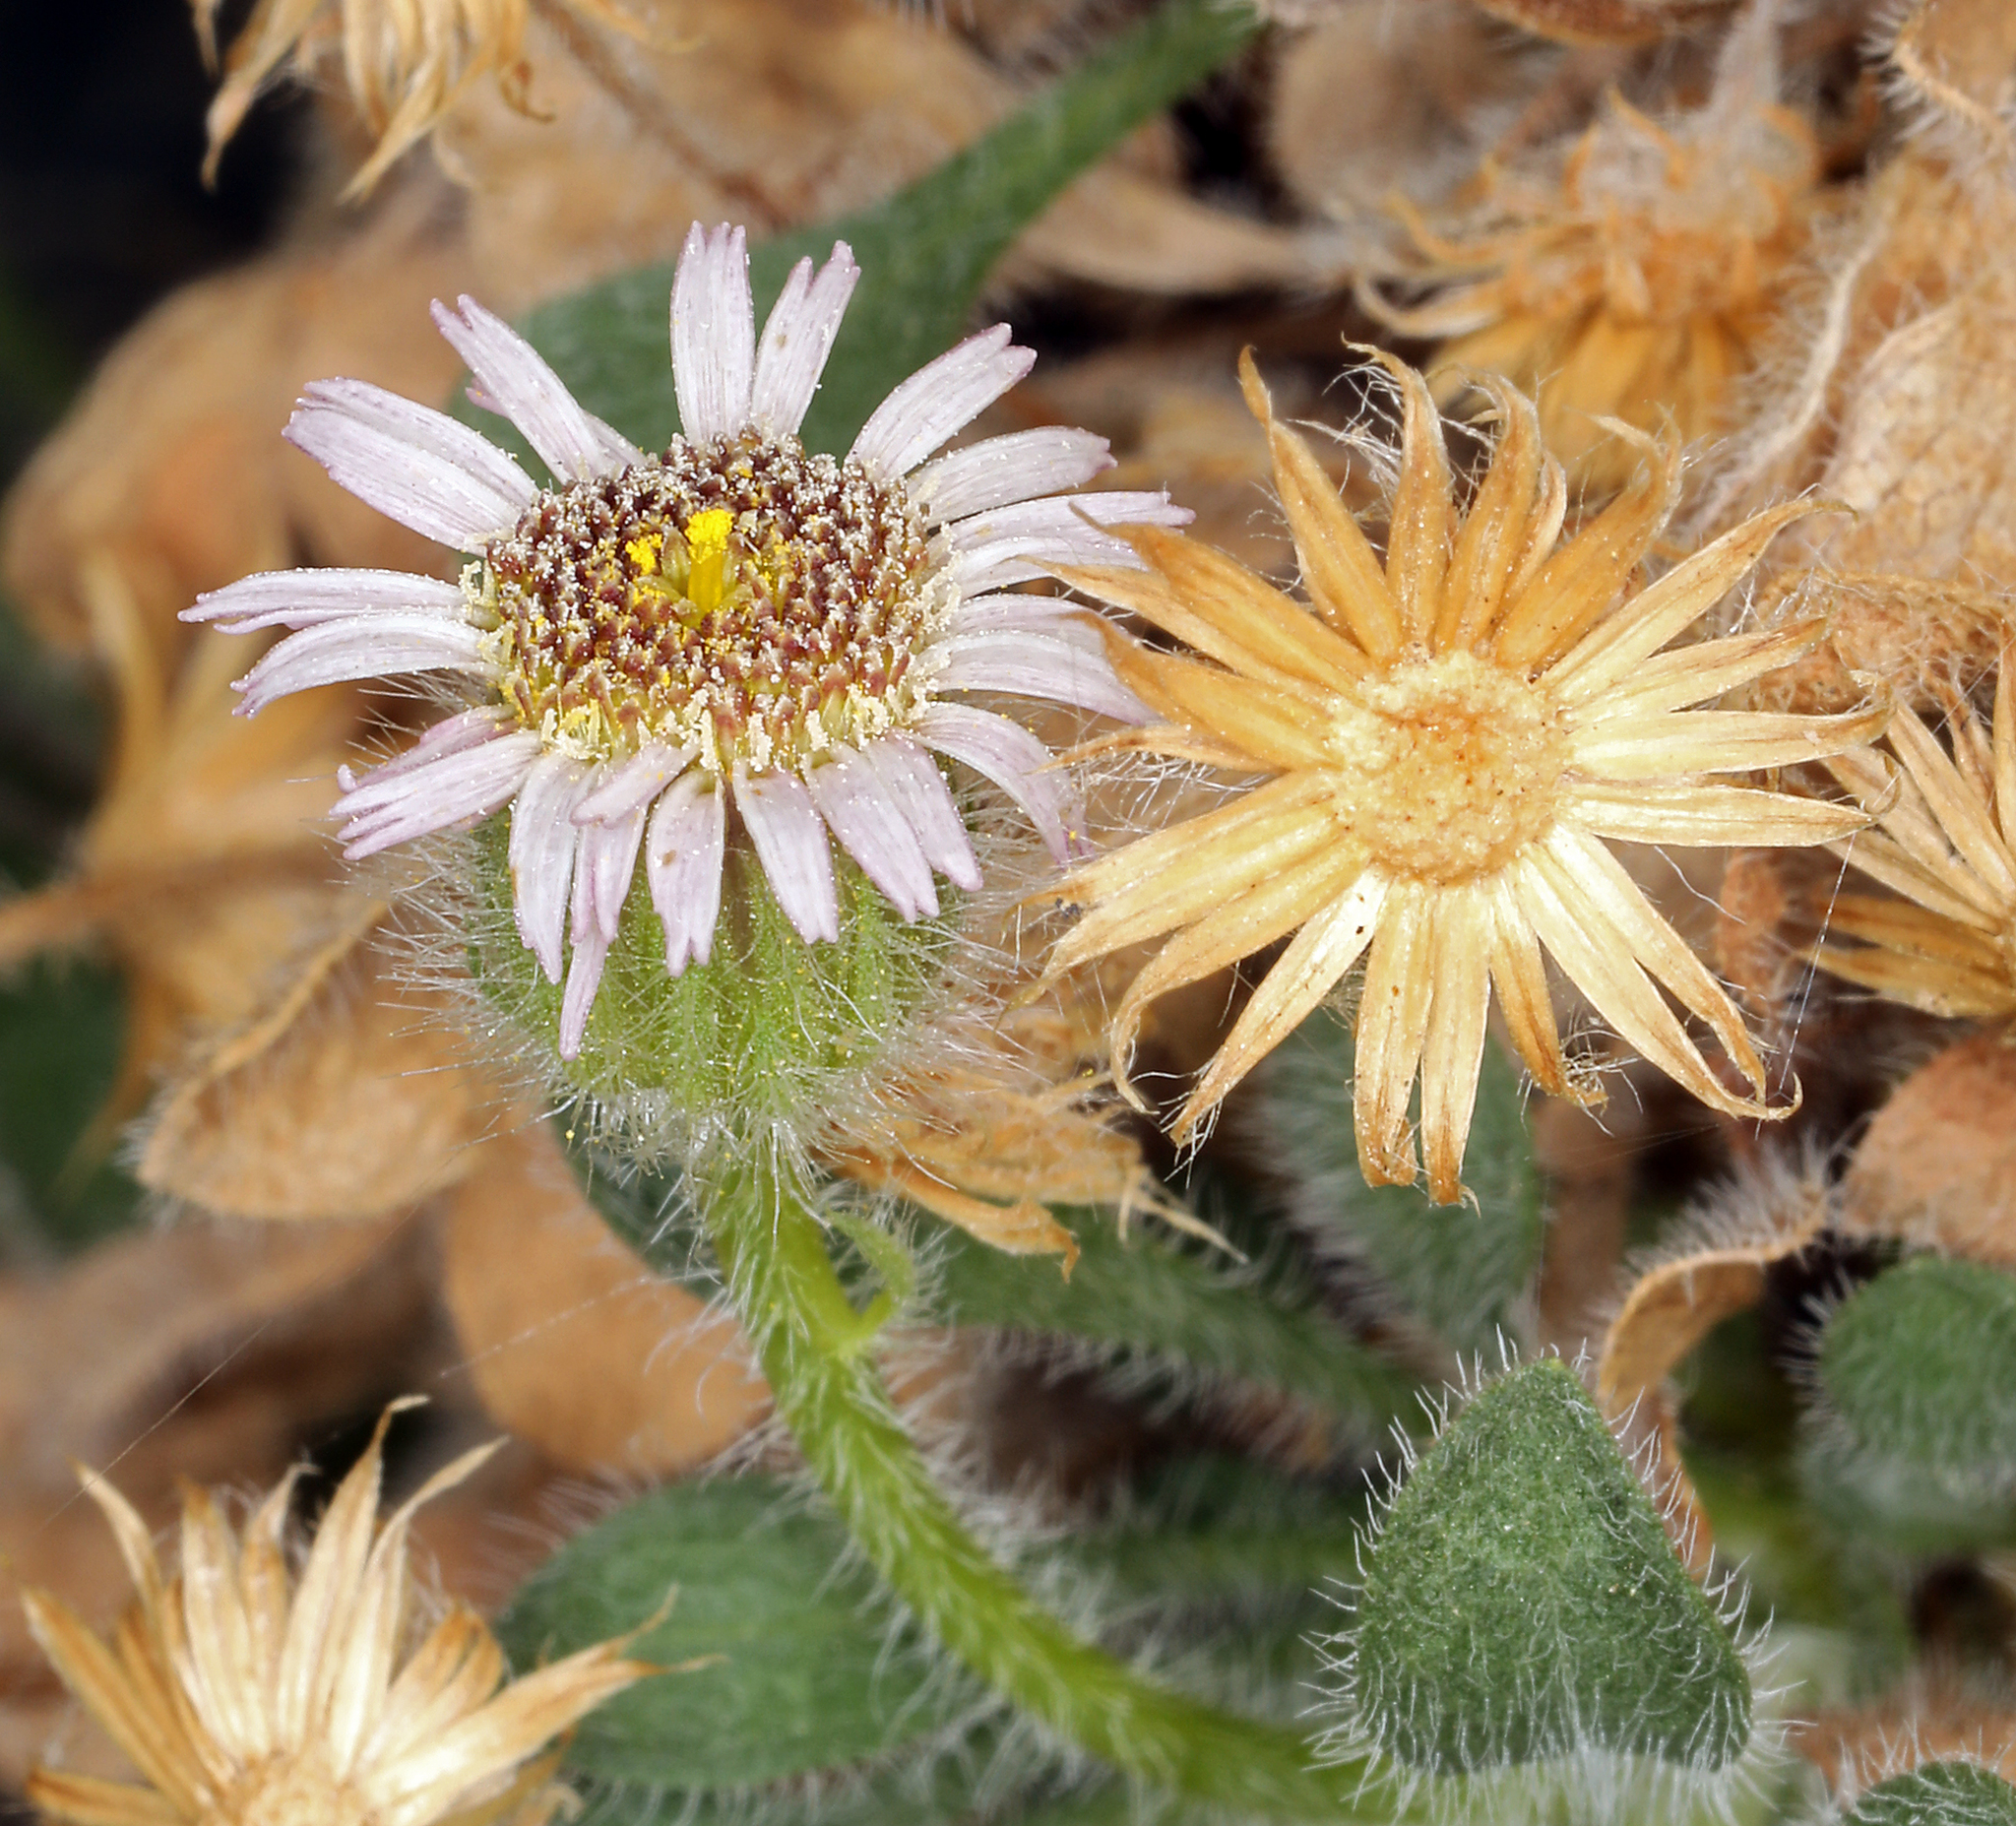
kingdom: Plantae
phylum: Tracheophyta
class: Magnoliopsida
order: Asterales
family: Asteraceae
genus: Erigeron
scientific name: Erigeron uncialis
